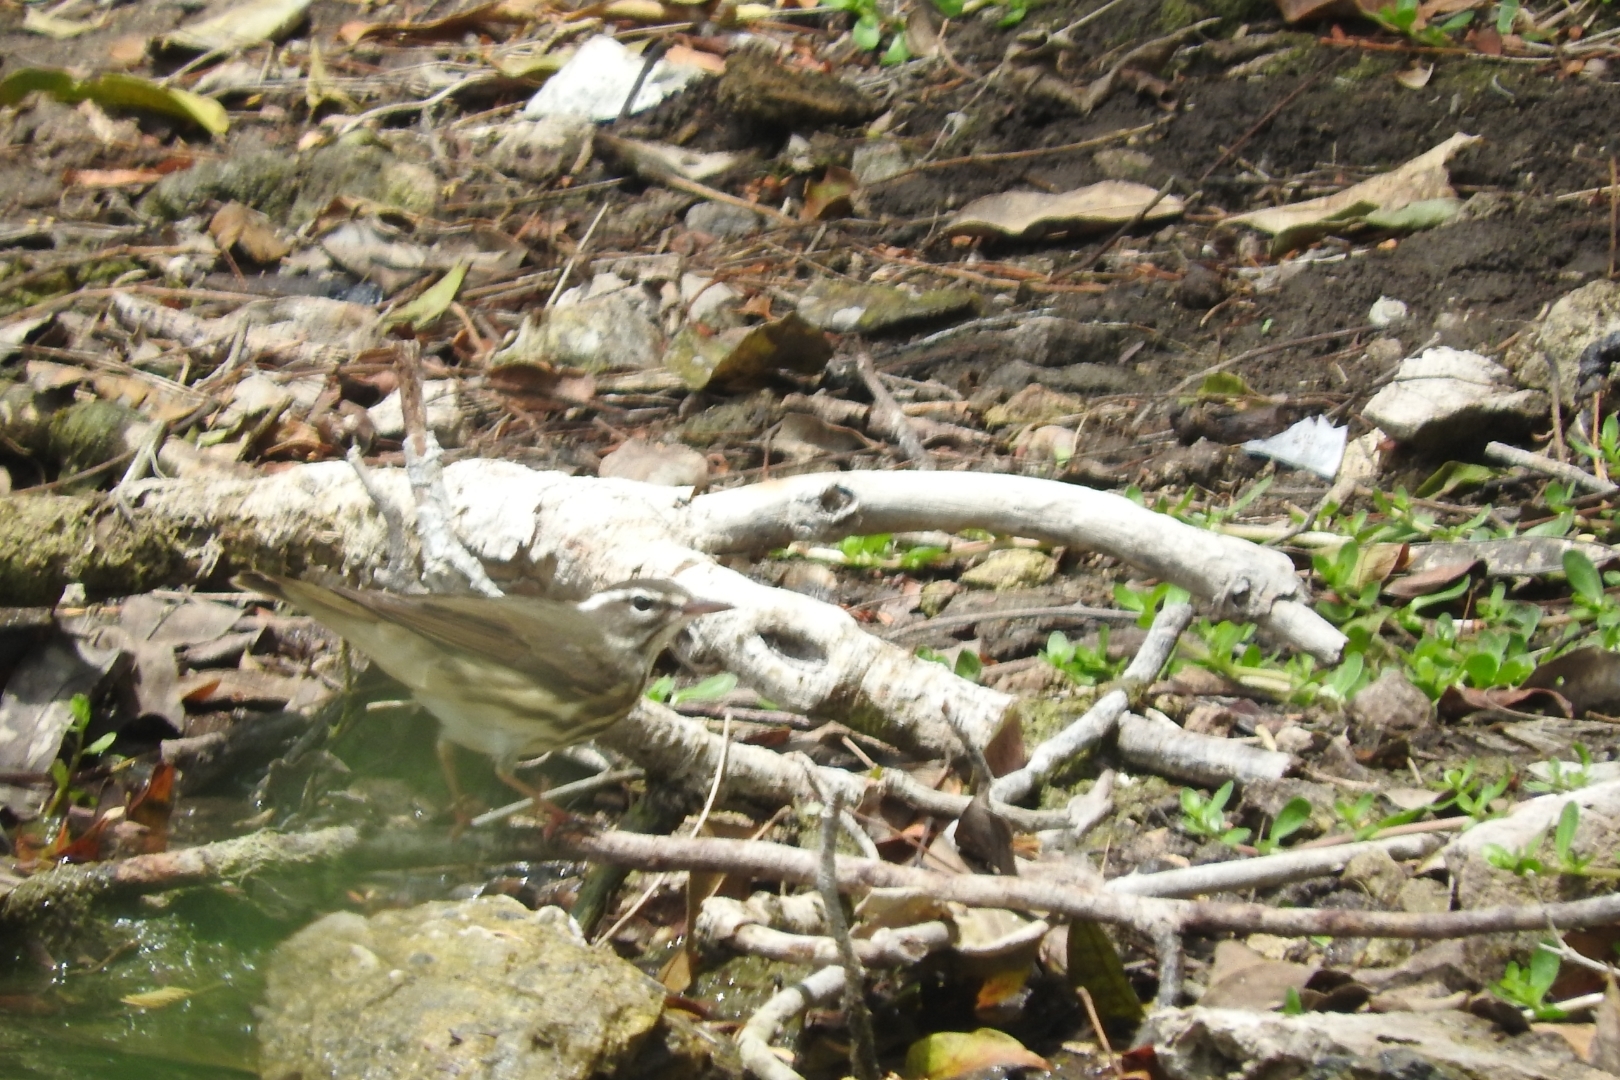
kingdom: Animalia
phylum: Chordata
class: Aves
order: Passeriformes
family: Parulidae
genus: Parkesia
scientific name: Parkesia motacilla
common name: Louisiana waterthrush
